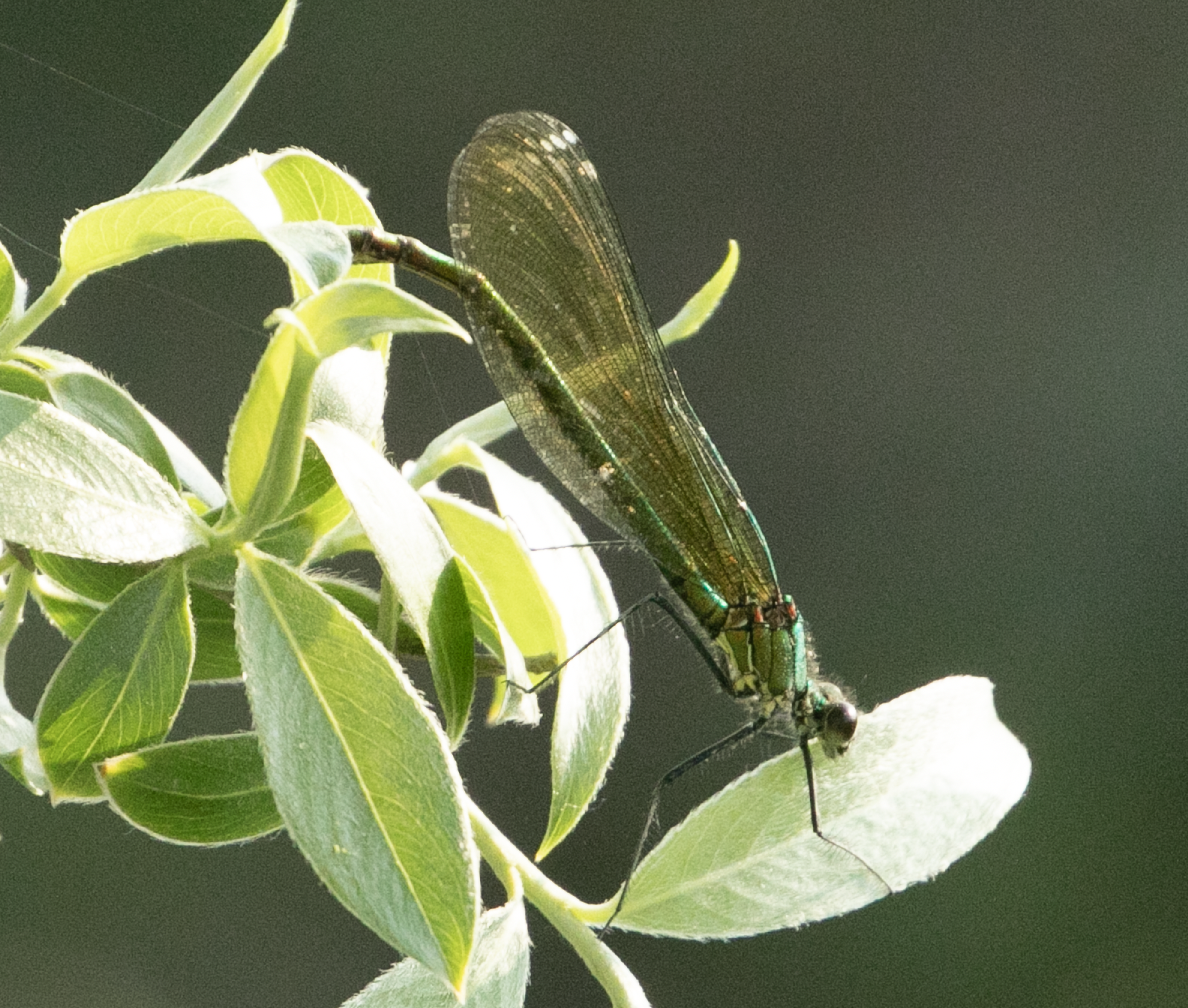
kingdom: Animalia
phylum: Arthropoda
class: Insecta
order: Odonata
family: Calopterygidae
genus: Calopteryx
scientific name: Calopteryx splendens
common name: Banded demoiselle
